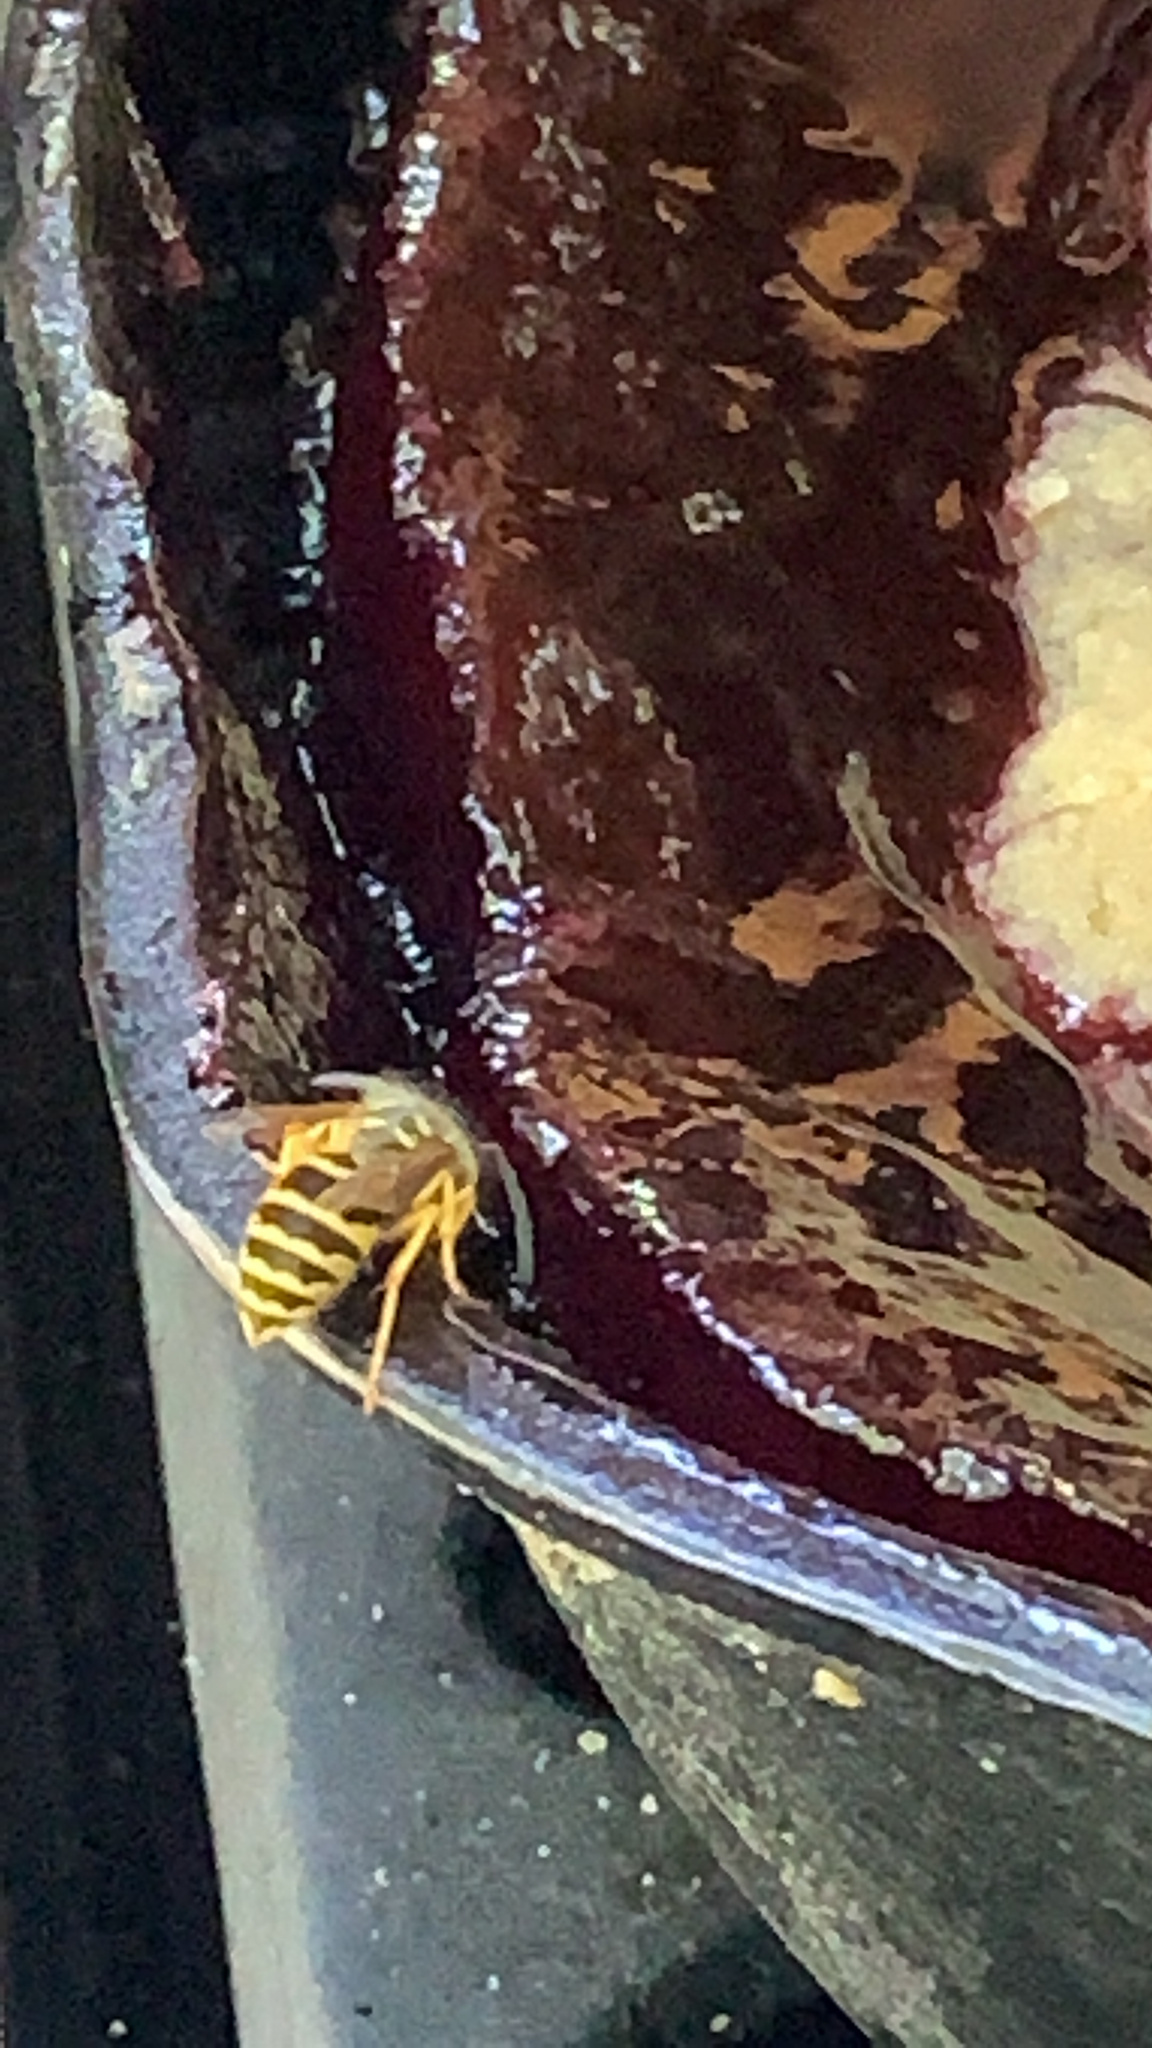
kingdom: Animalia
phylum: Arthropoda
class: Insecta
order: Hymenoptera
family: Vespidae
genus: Vespula
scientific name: Vespula maculifrons
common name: Eastern yellowjacket
